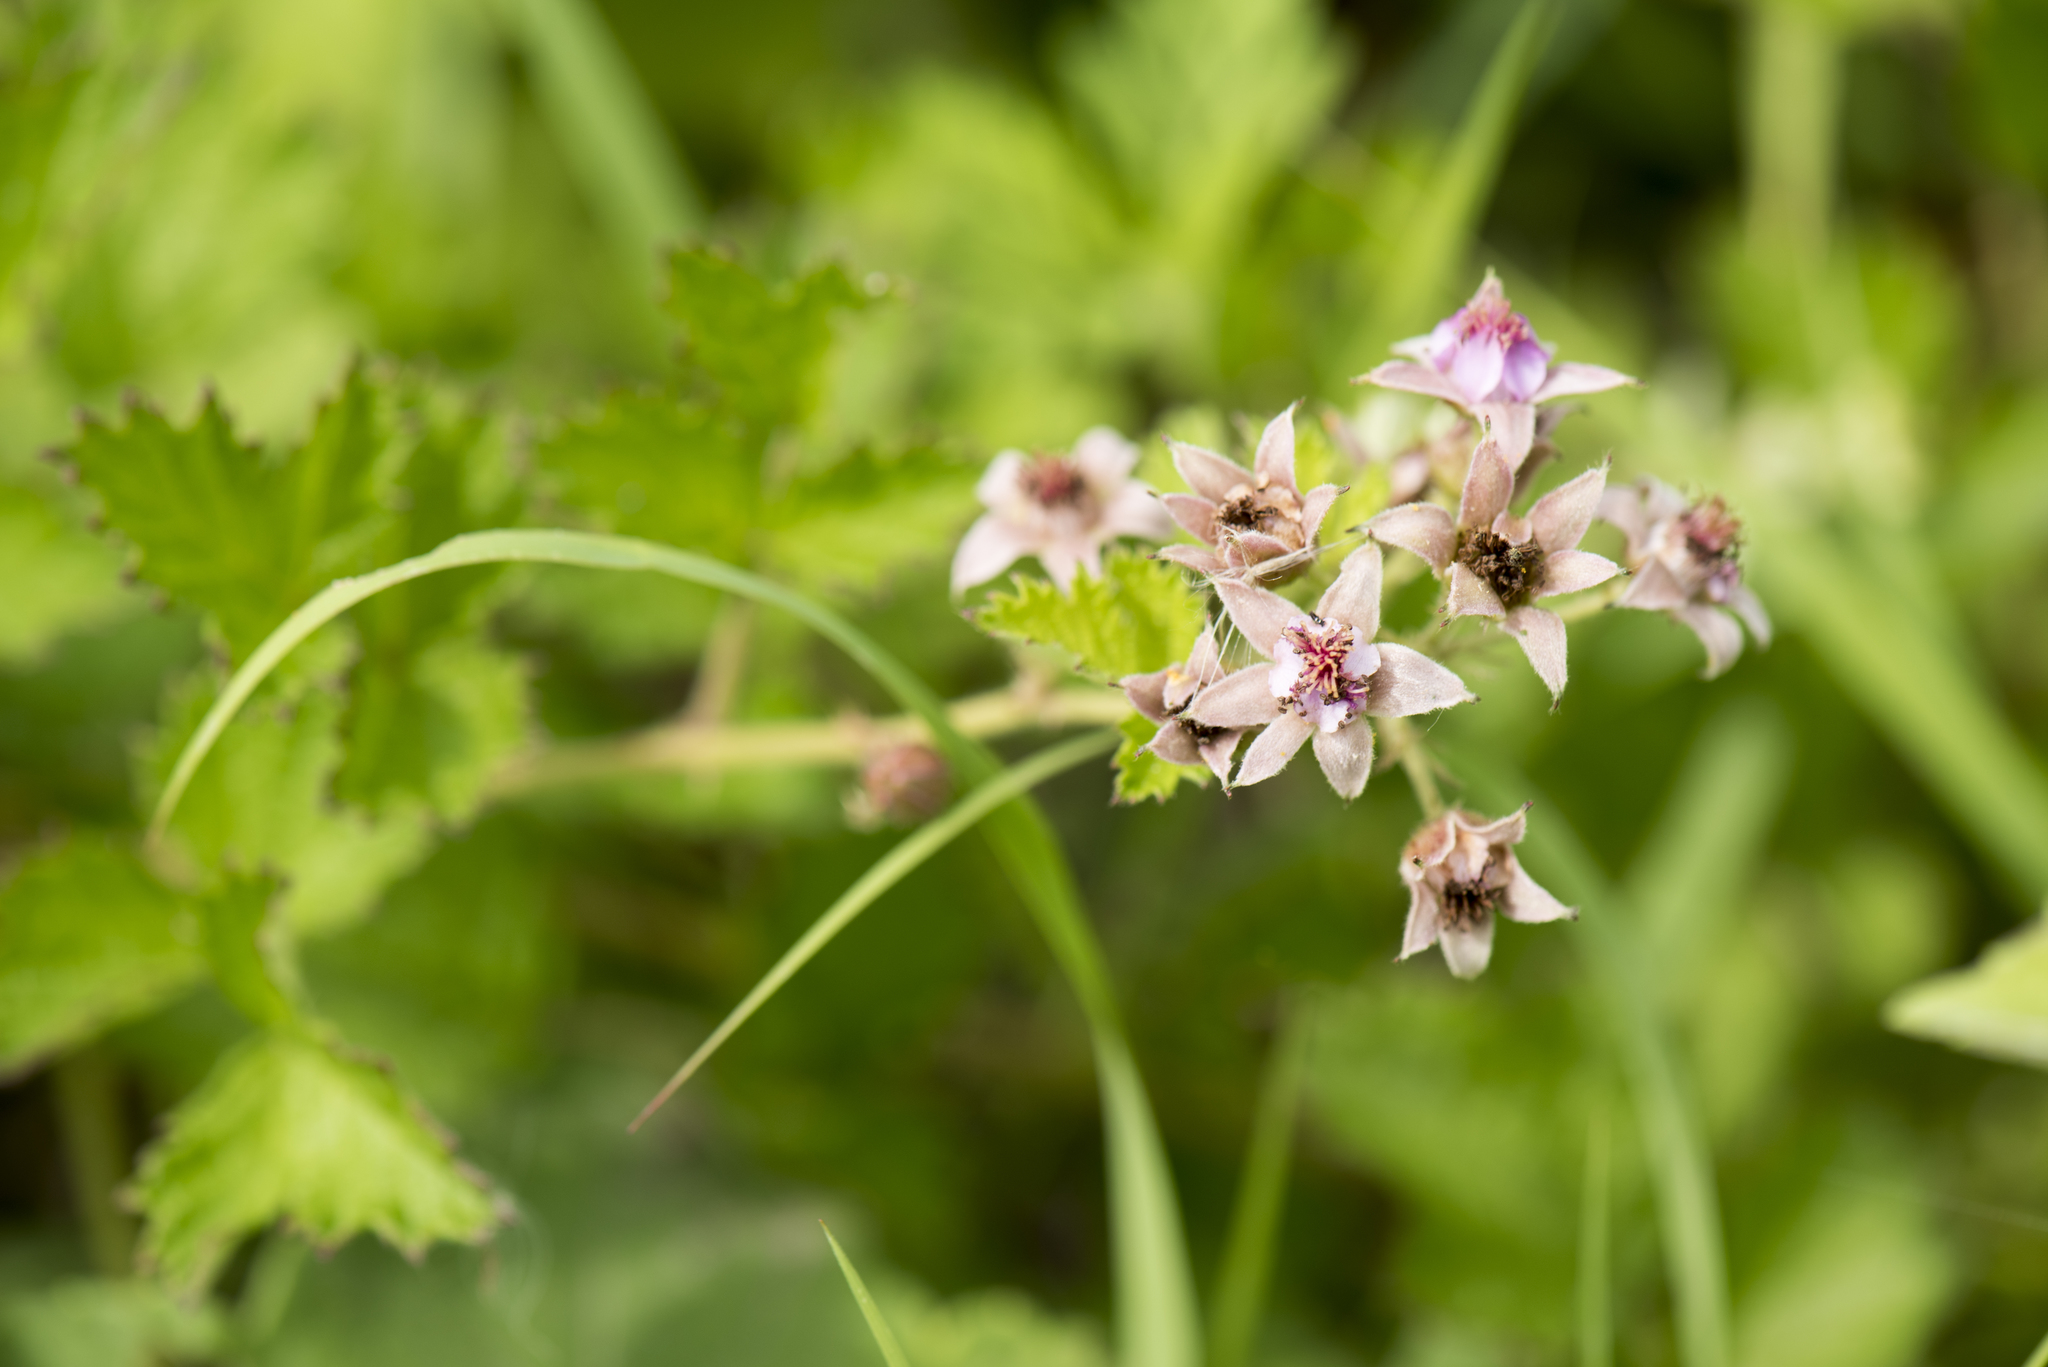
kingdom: Plantae
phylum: Tracheophyta
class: Magnoliopsida
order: Rosales
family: Rosaceae
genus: Rubus
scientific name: Rubus parvifolius
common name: Threeleaf blackberry
